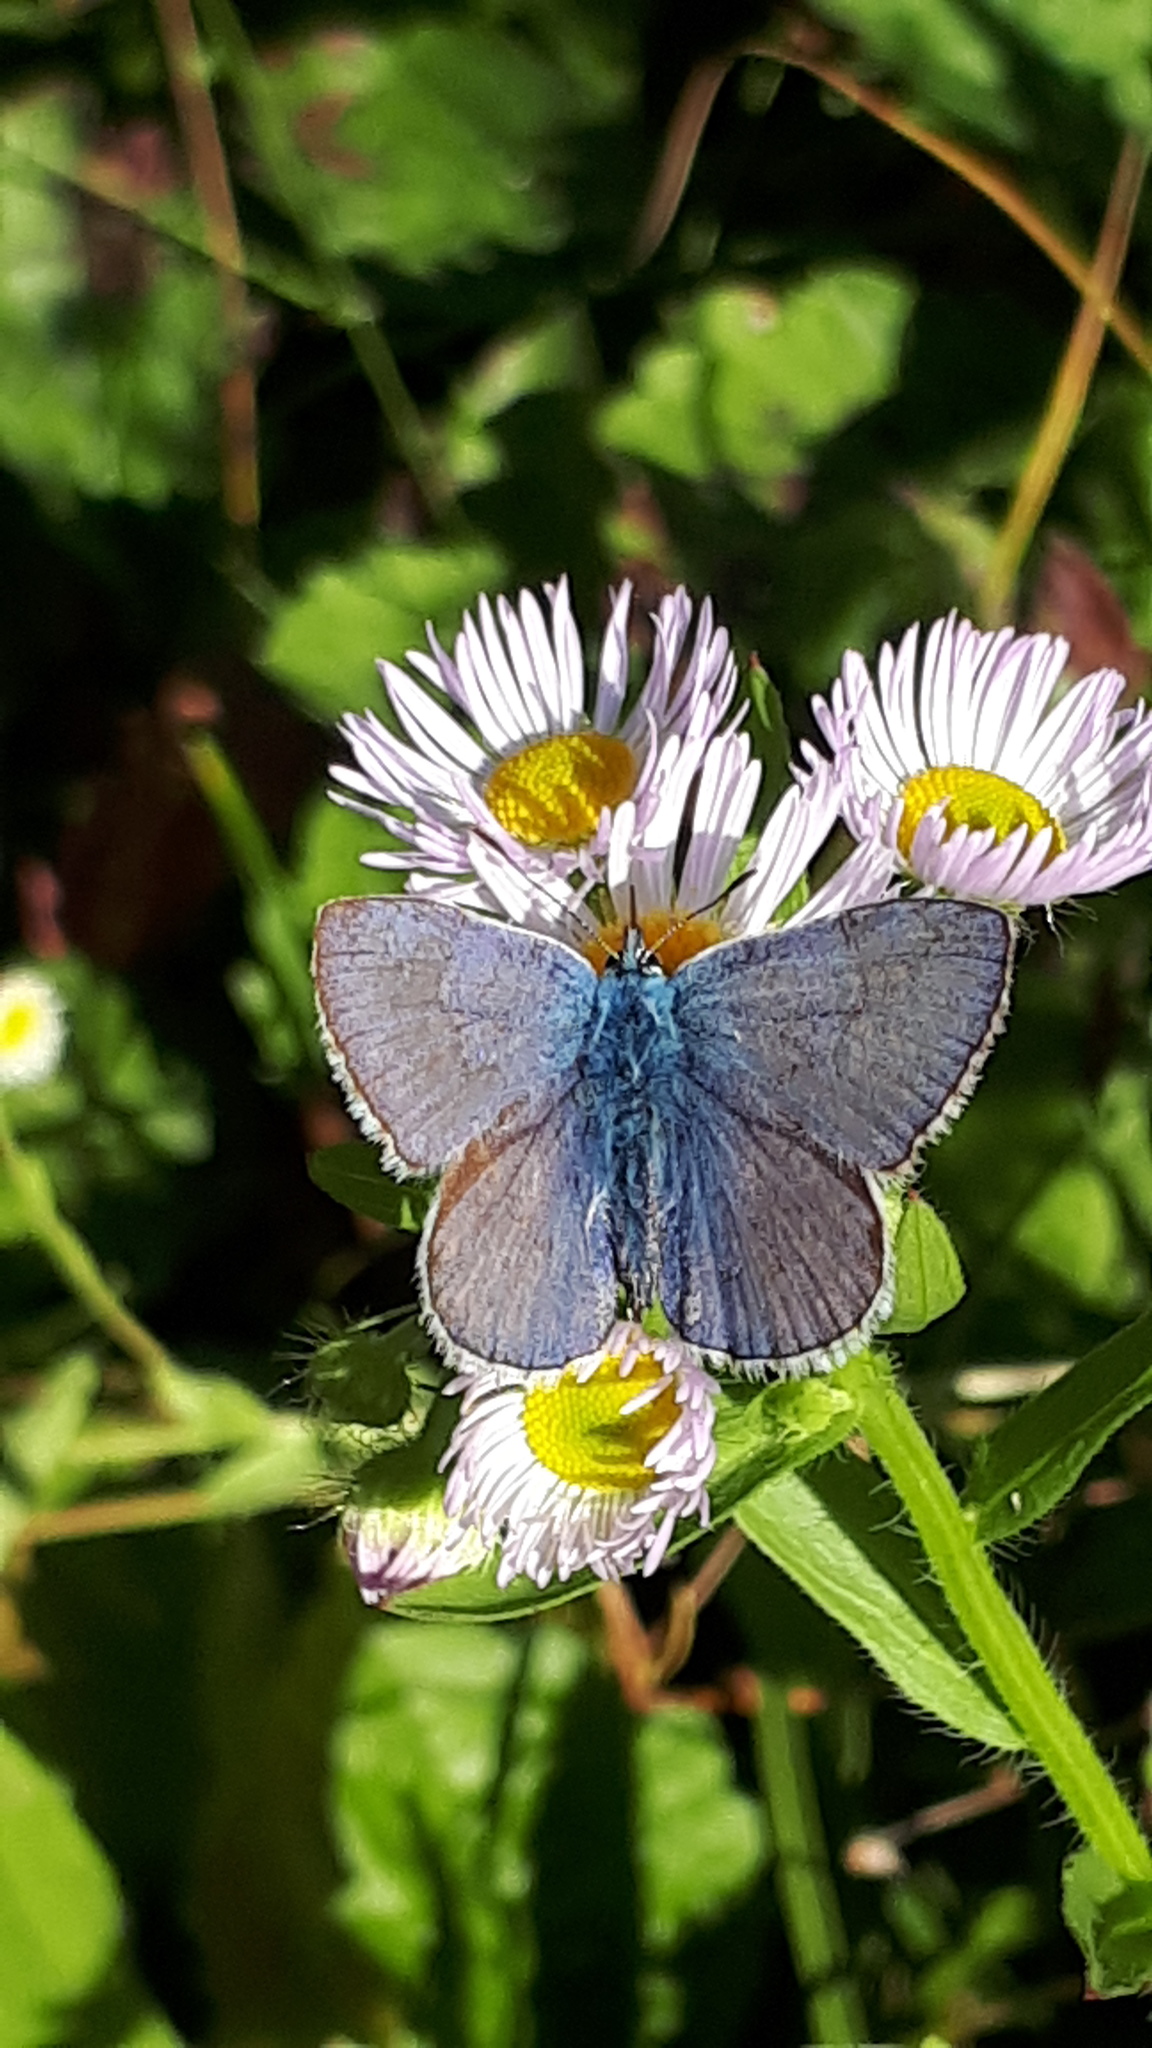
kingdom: Animalia
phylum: Arthropoda
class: Insecta
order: Lepidoptera
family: Lycaenidae
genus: Polyommatus
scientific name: Polyommatus icarus
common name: Common blue
